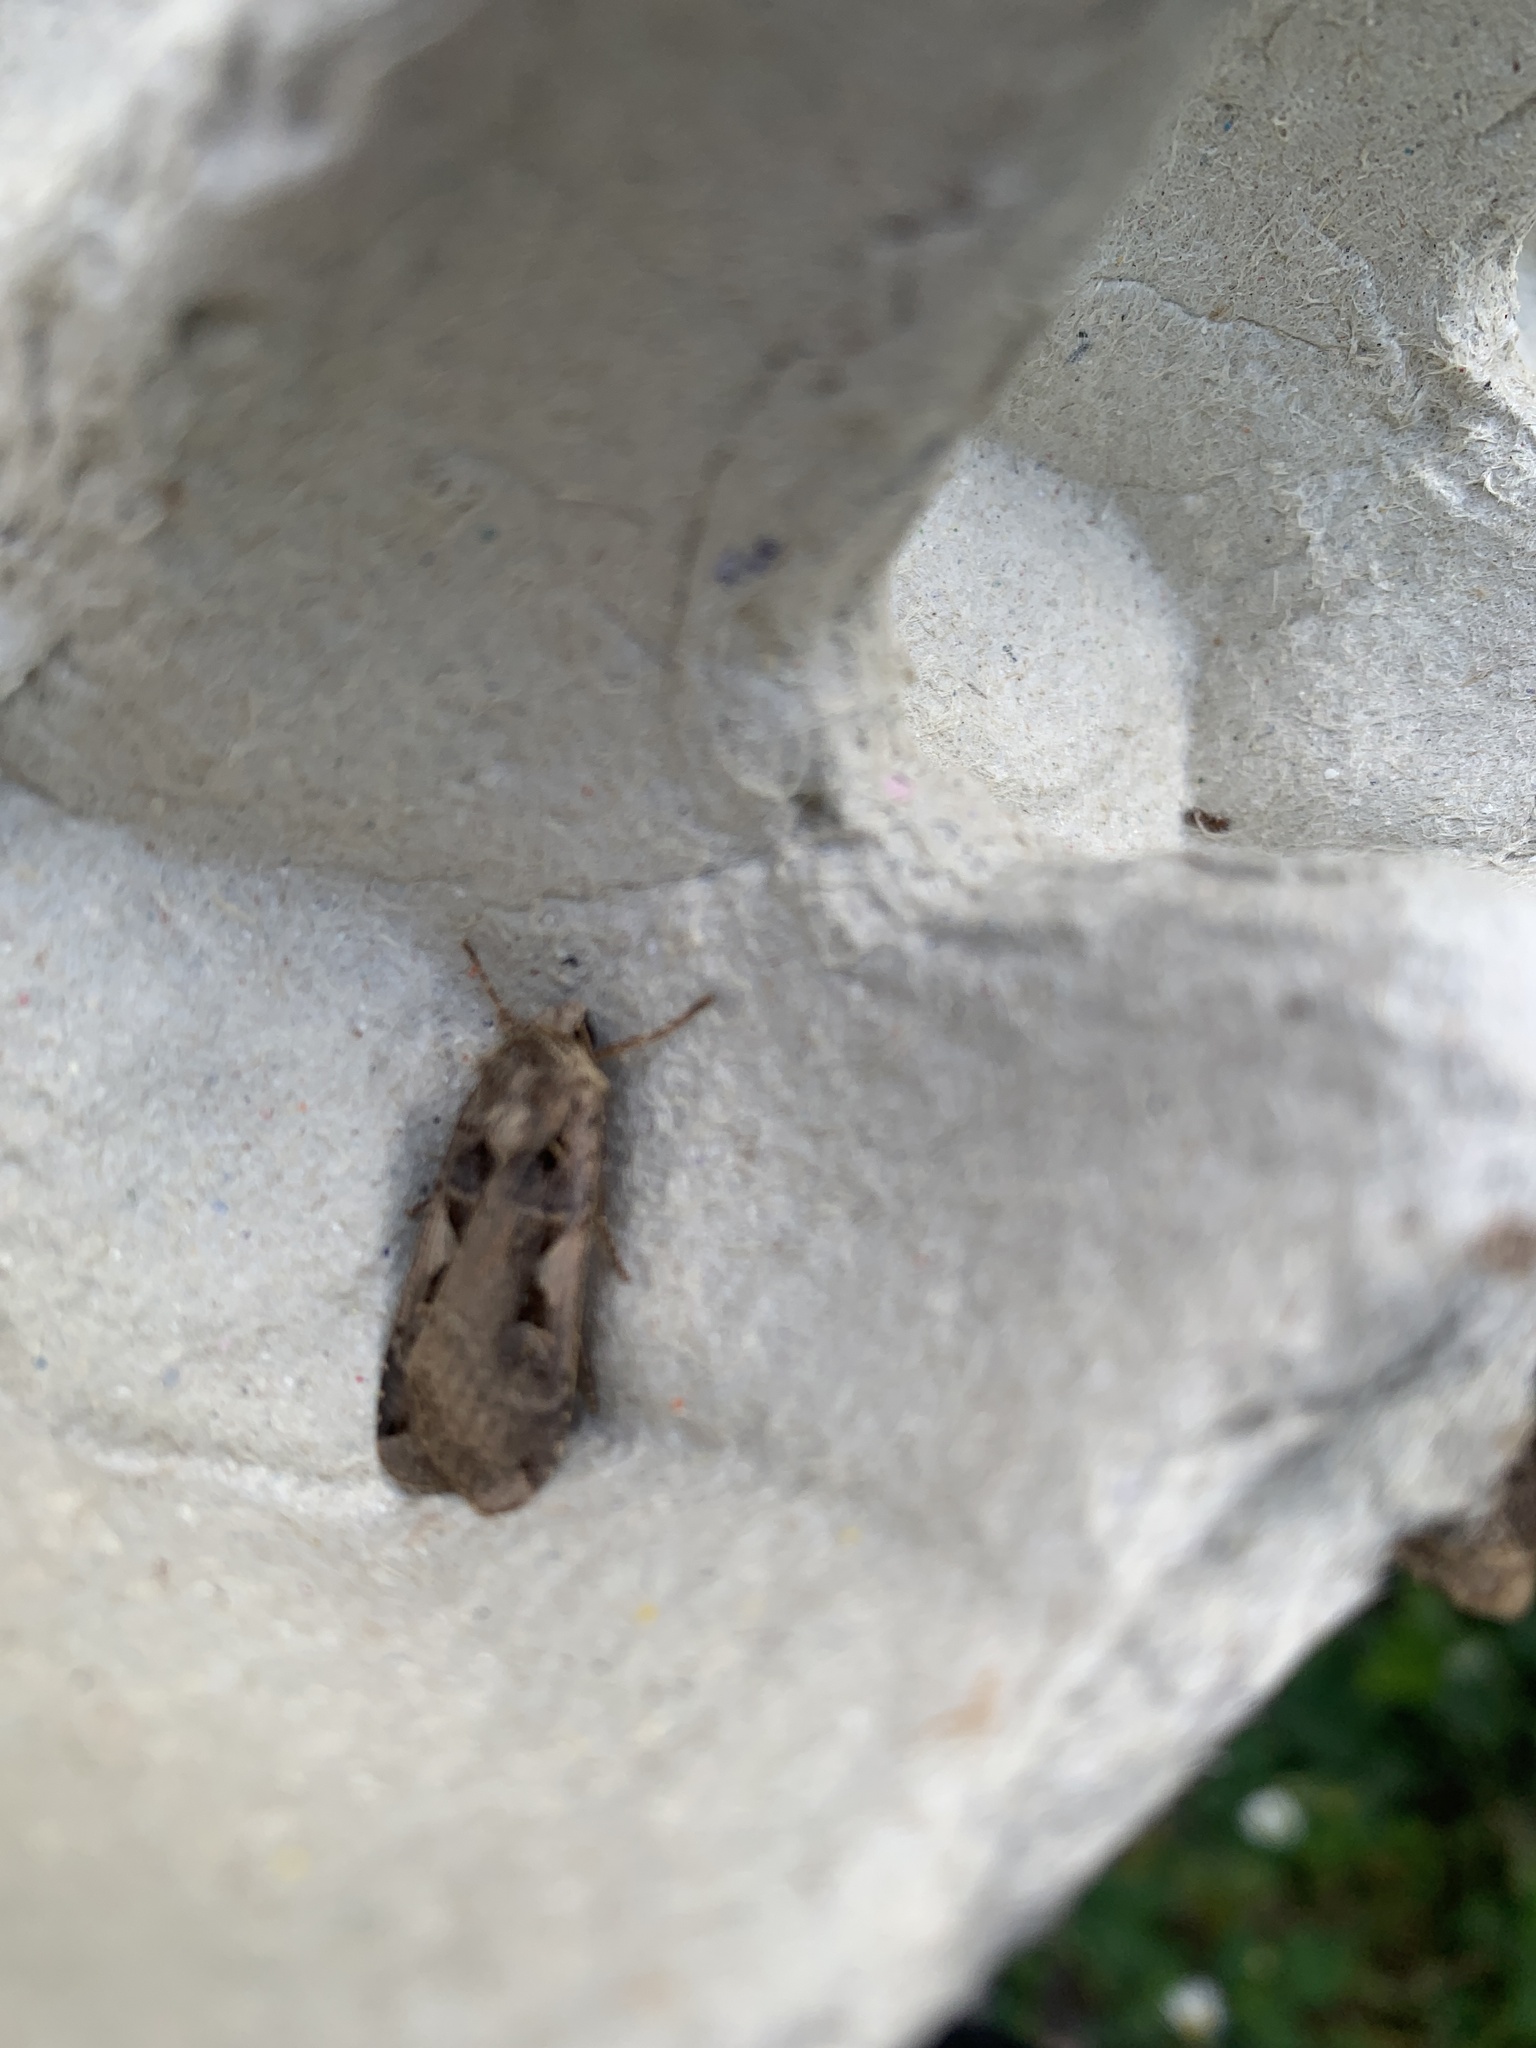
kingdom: Animalia
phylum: Arthropoda
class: Insecta
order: Lepidoptera
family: Noctuidae
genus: Xestia
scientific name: Xestia c-nigrum
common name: Setaceous hebrew character
